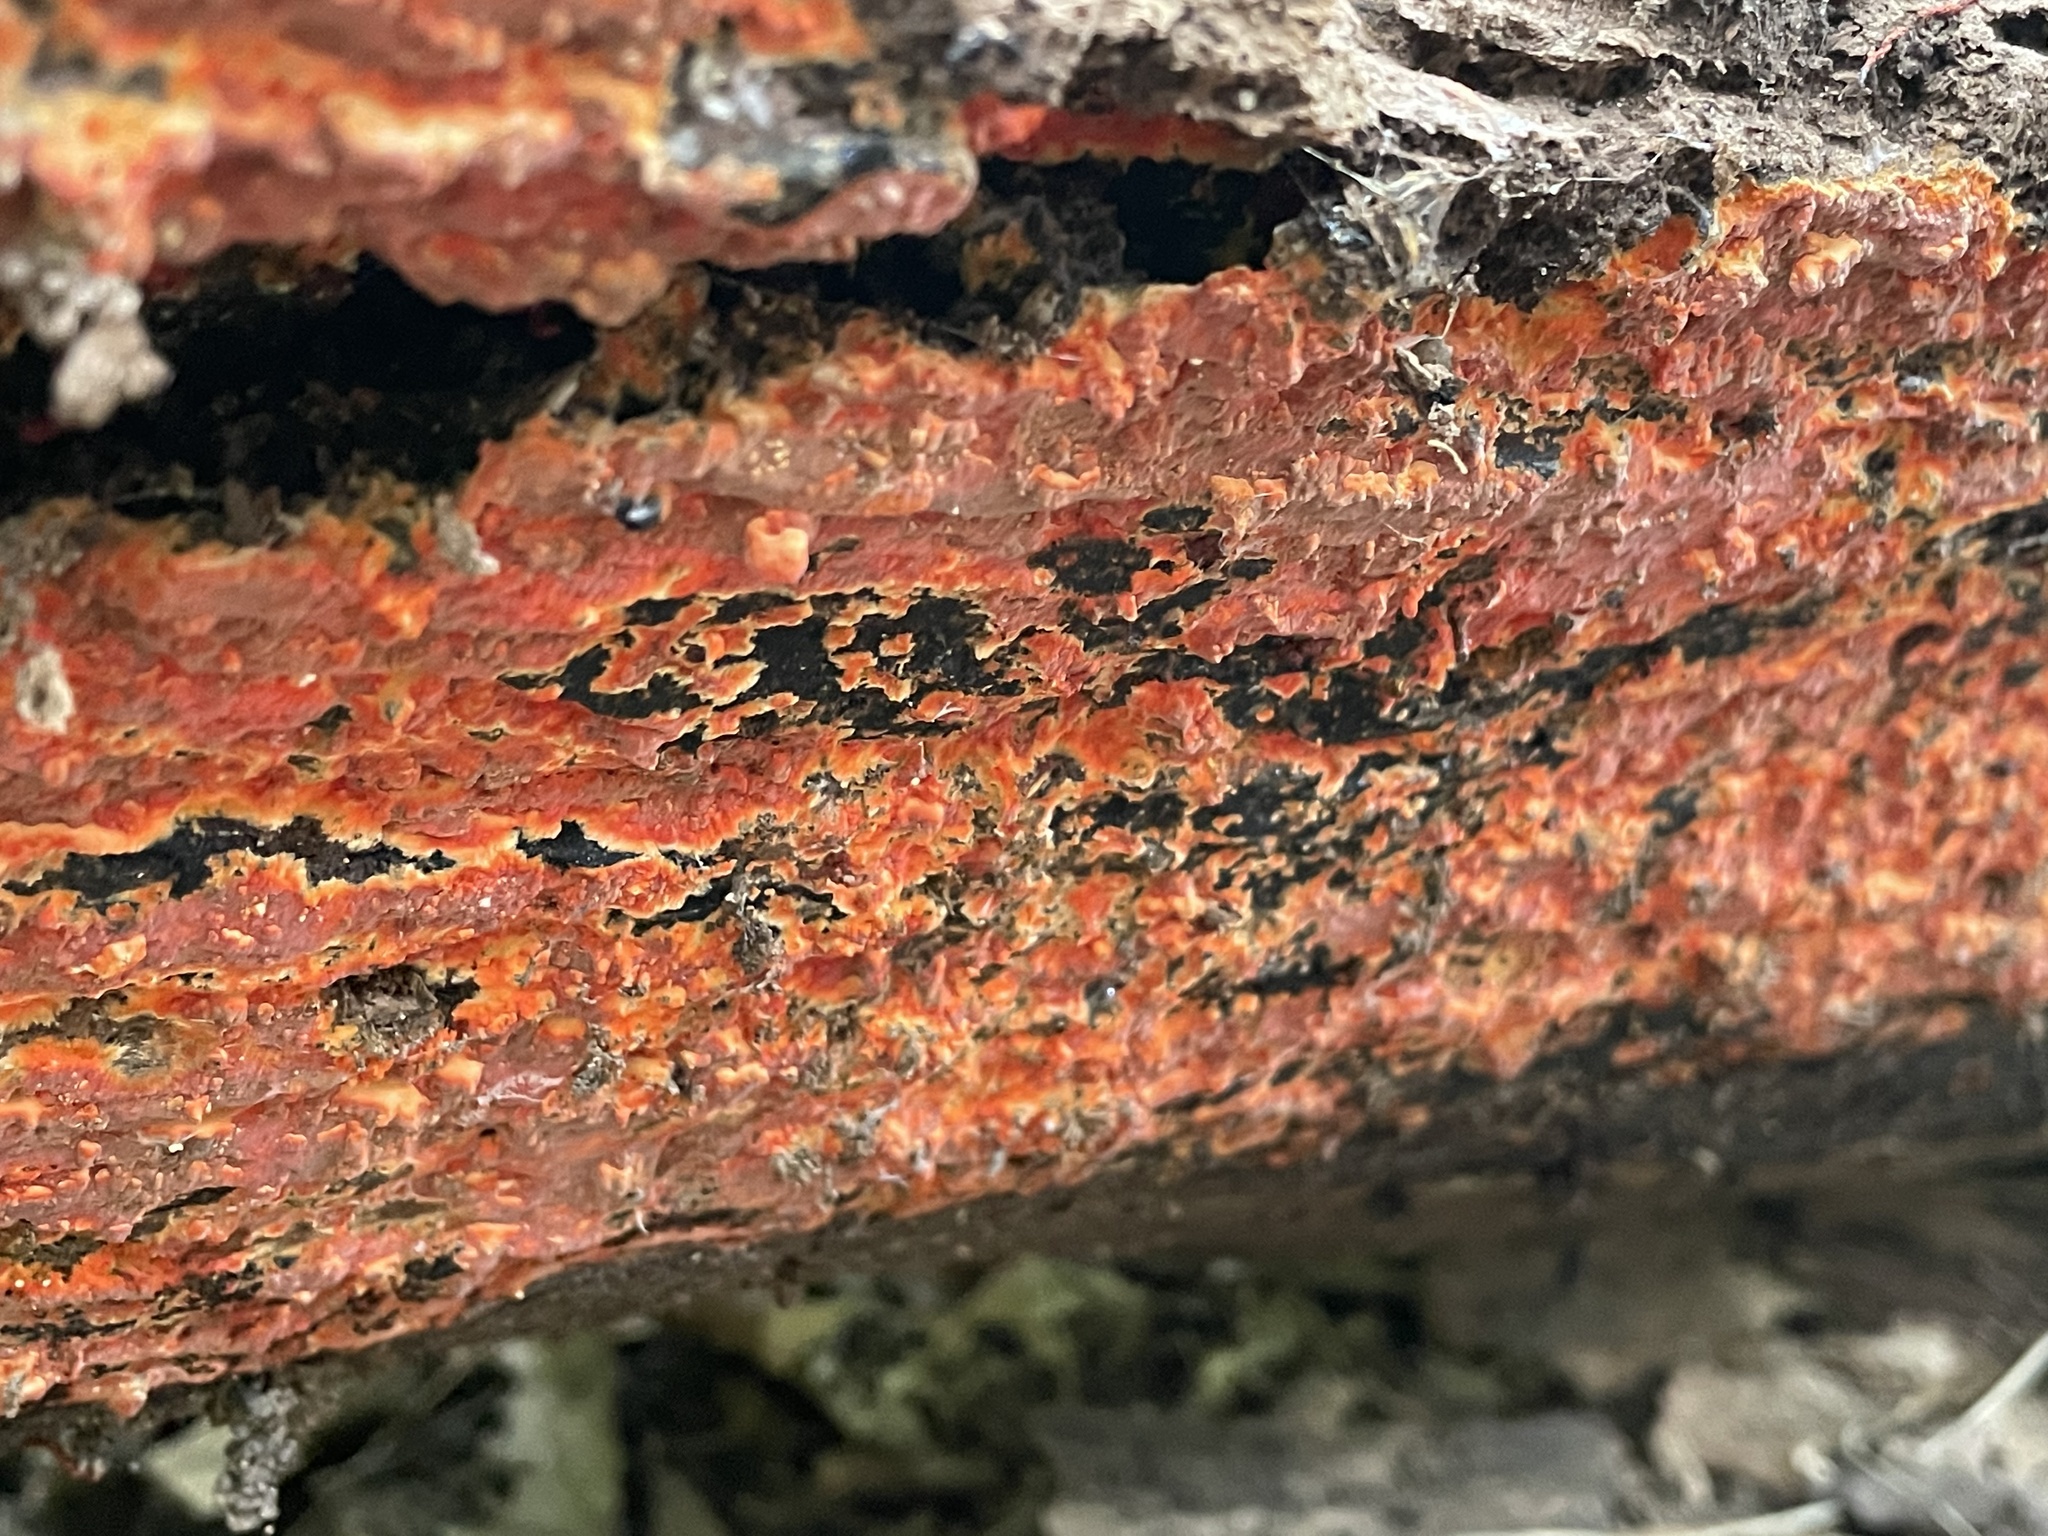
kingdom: Fungi
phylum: Basidiomycota
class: Agaricomycetes
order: Polyporales
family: Meruliaceae
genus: Phlebia
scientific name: Phlebia coccineofulva
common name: Scarlet waxcrust
